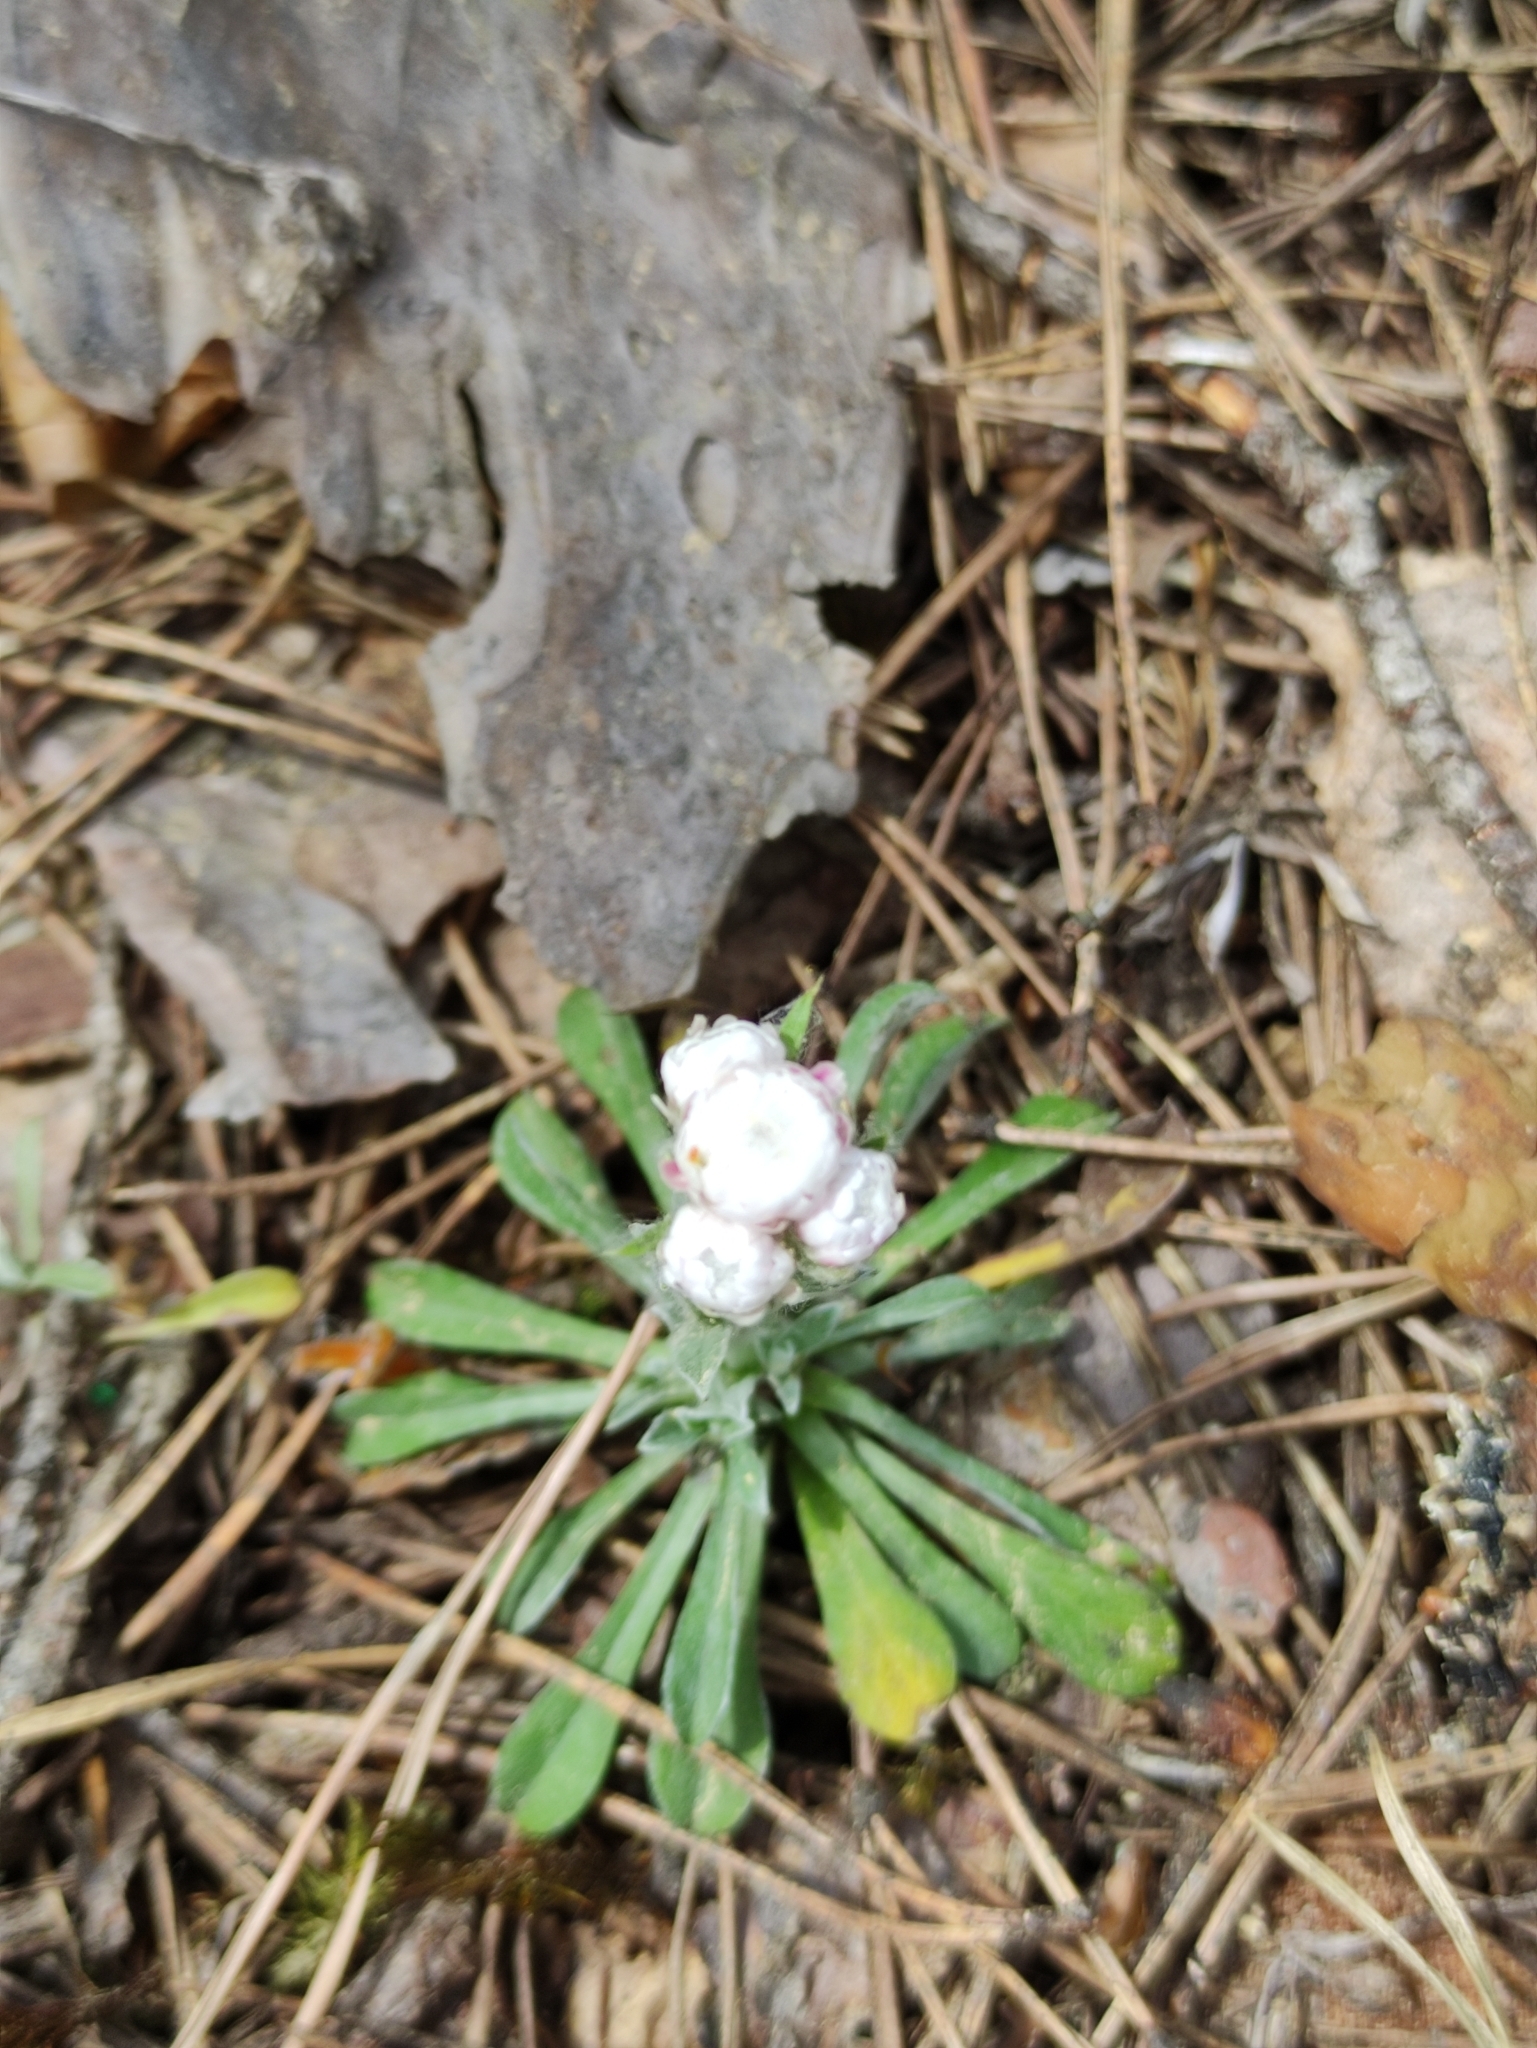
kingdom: Plantae
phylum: Tracheophyta
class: Magnoliopsida
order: Asterales
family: Asteraceae
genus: Antennaria
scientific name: Antennaria dioica
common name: Mountain everlasting
